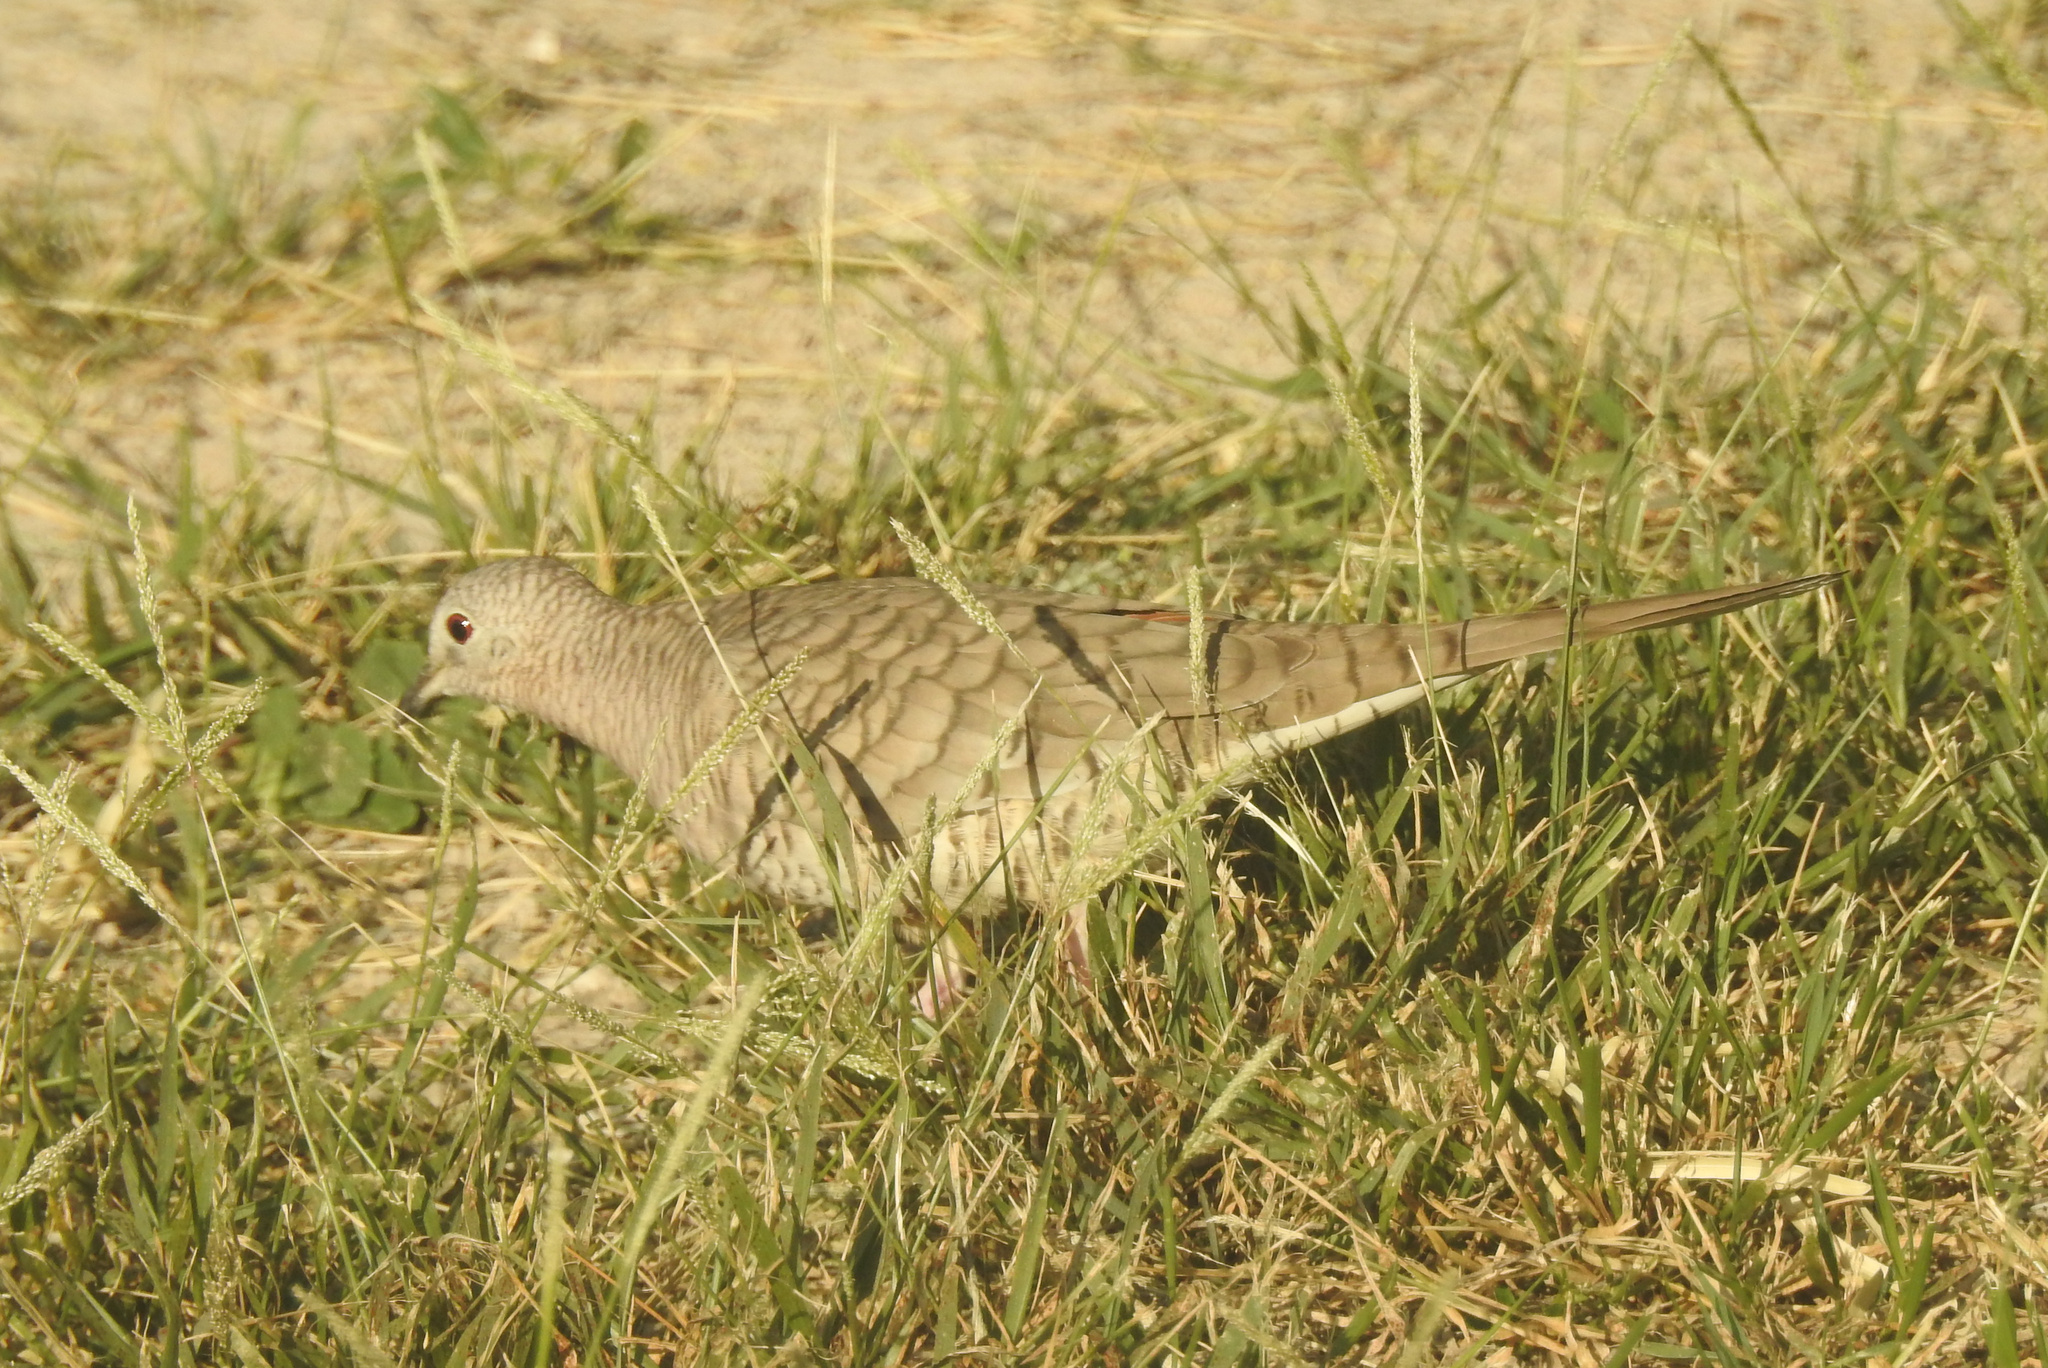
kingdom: Animalia
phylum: Chordata
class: Aves
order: Columbiformes
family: Columbidae
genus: Columbina
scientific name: Columbina inca
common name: Inca dove
